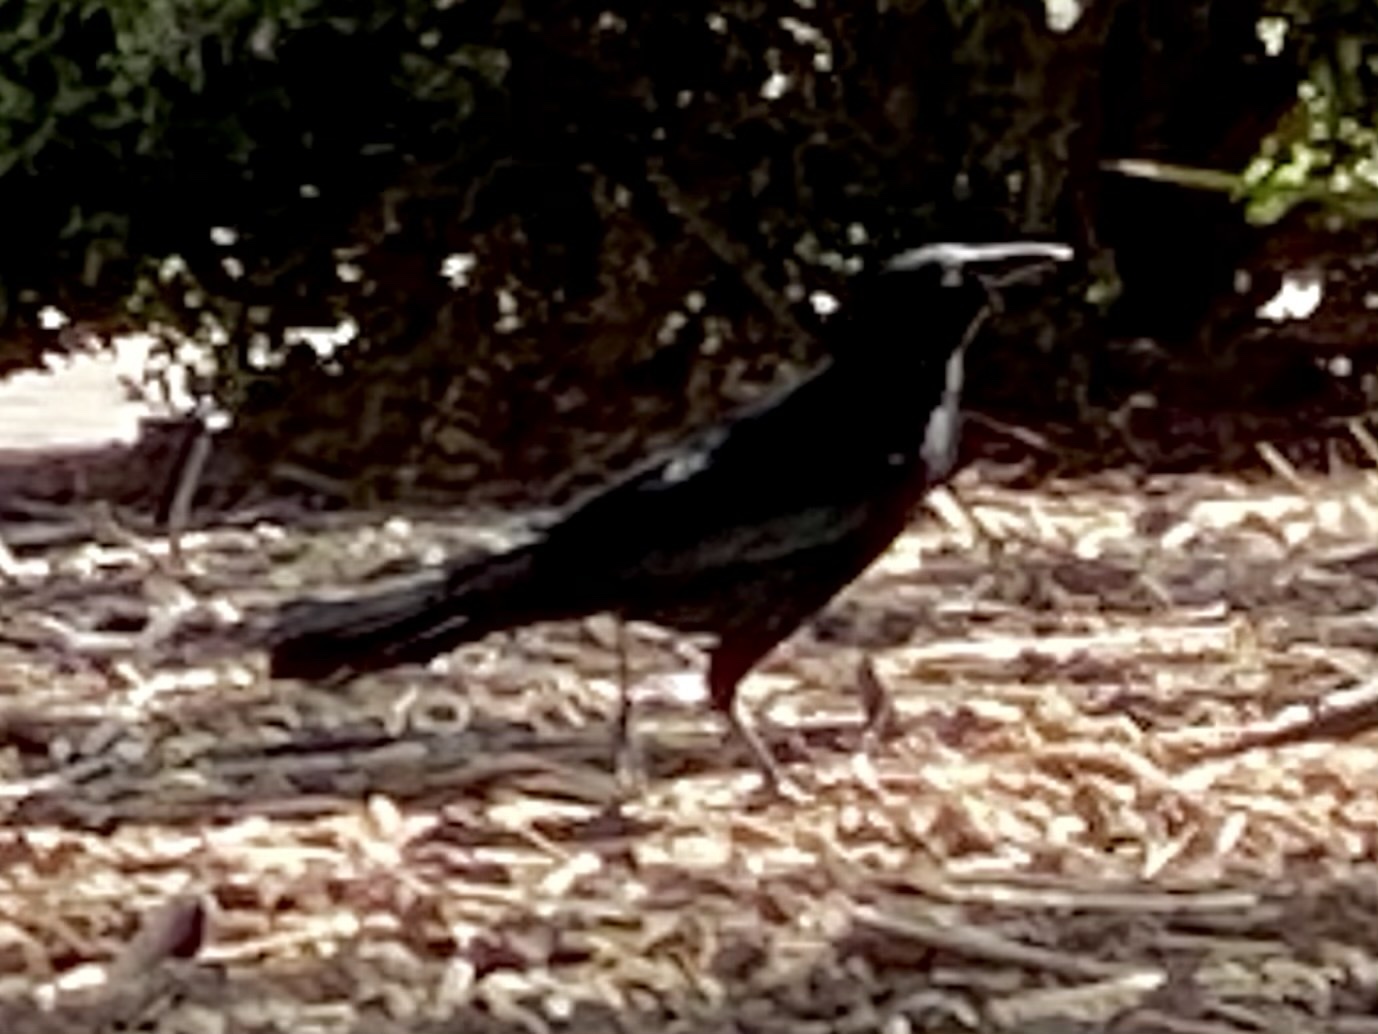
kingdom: Animalia
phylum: Chordata
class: Aves
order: Passeriformes
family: Icteridae
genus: Quiscalus
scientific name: Quiscalus mexicanus
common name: Great-tailed grackle
